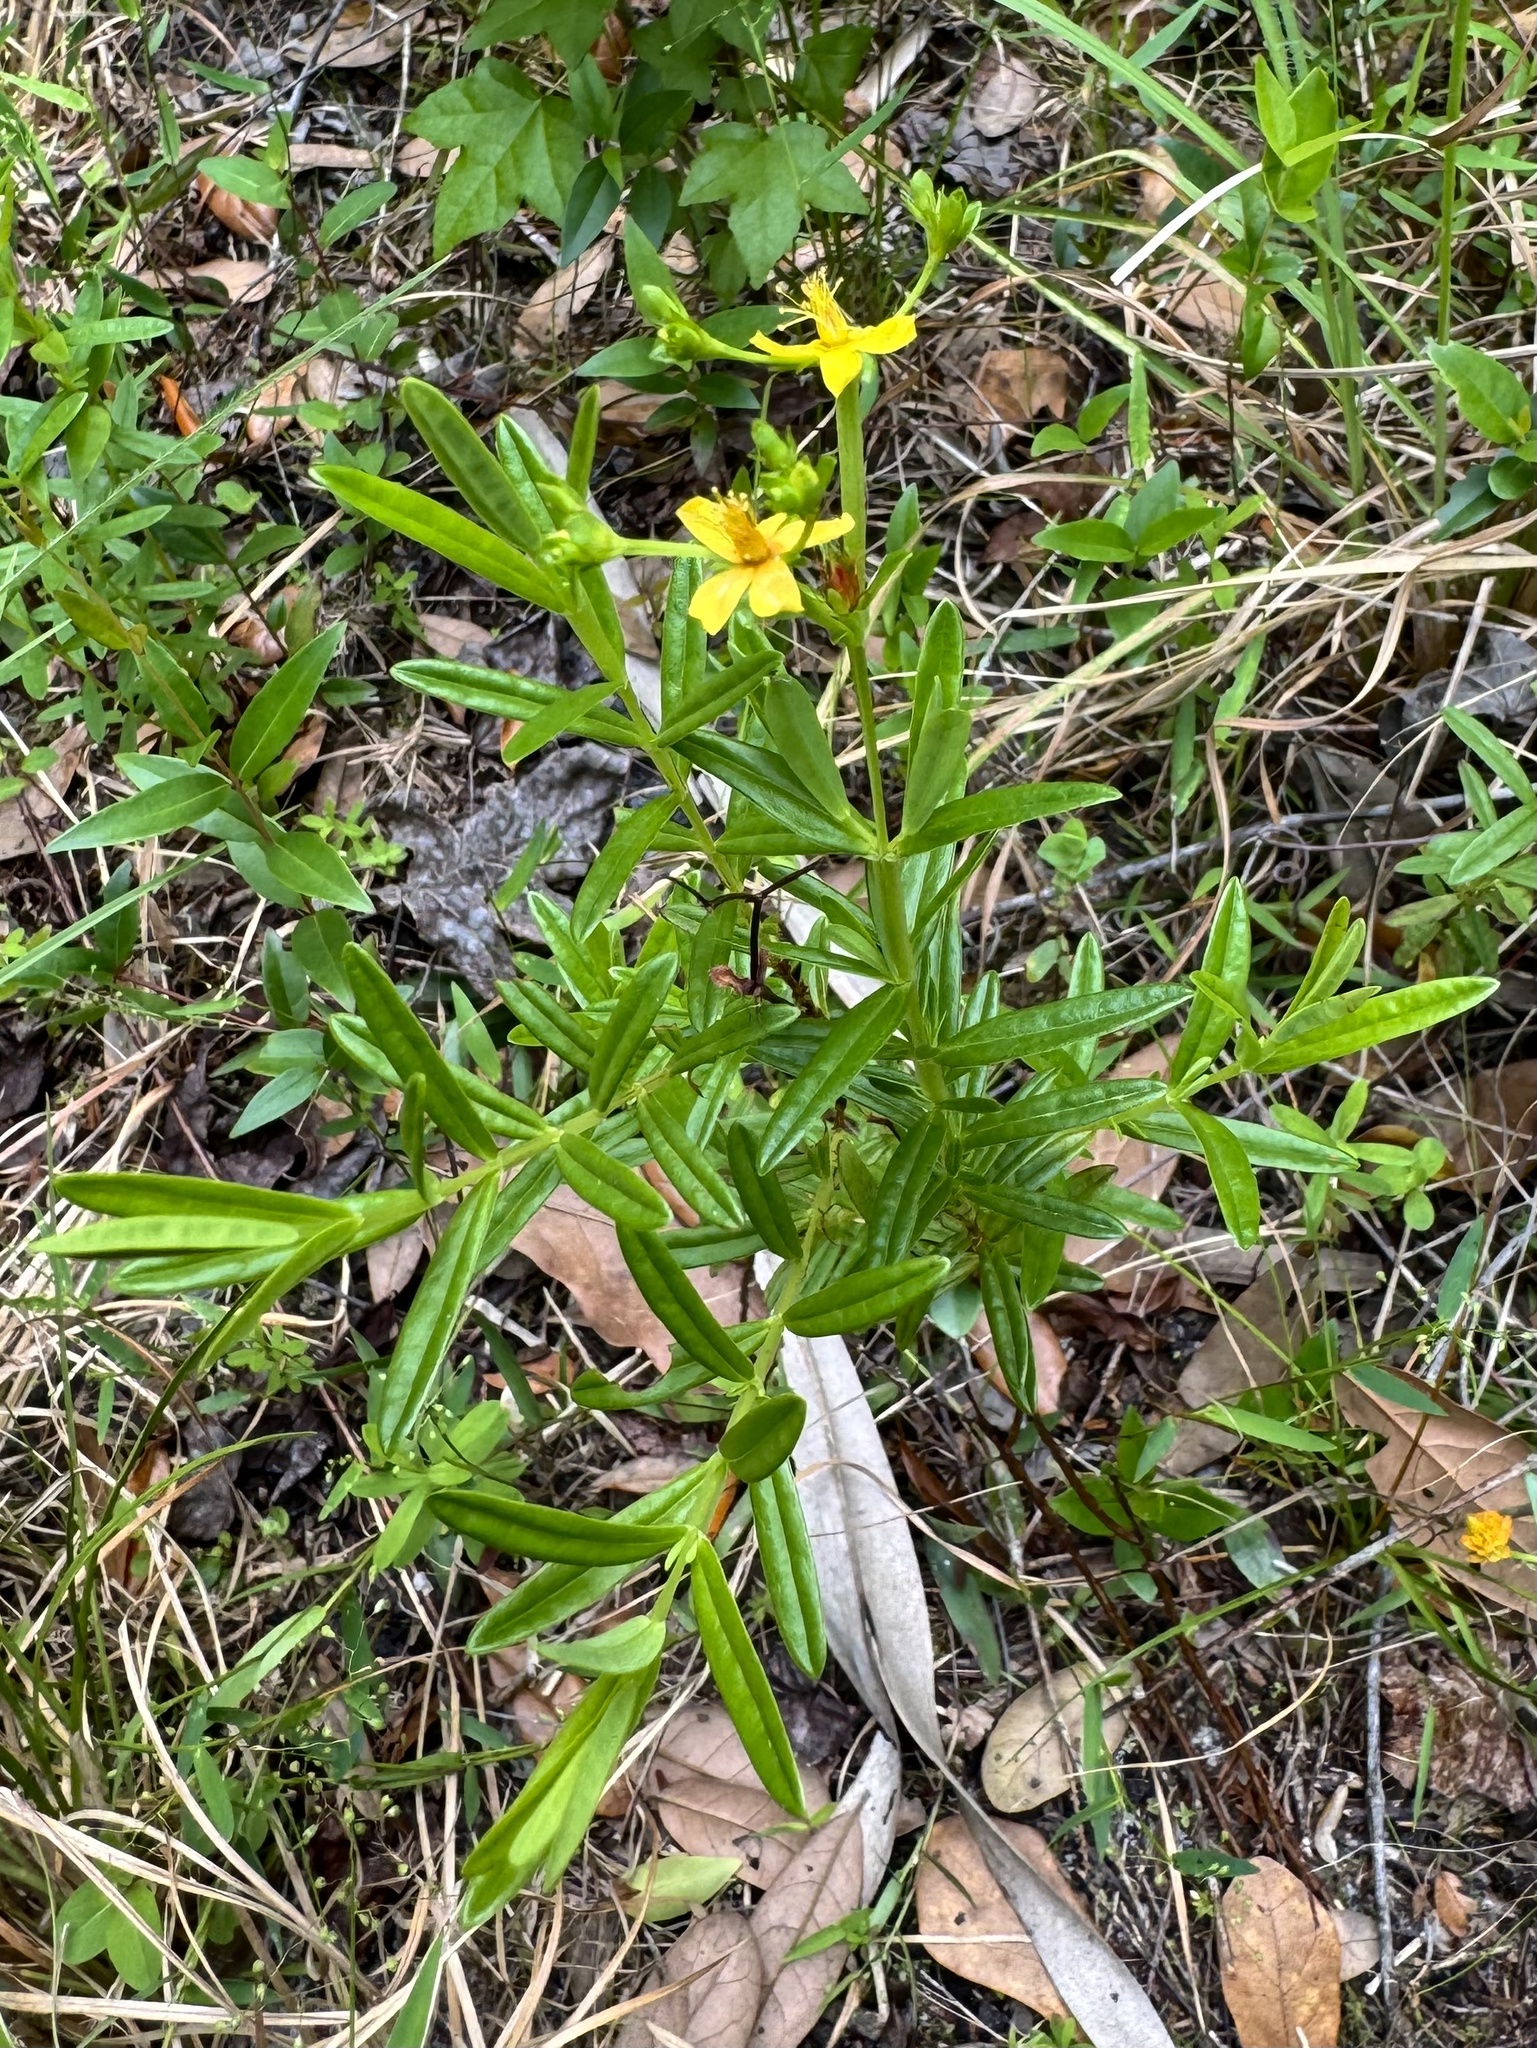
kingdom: Plantae
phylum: Tracheophyta
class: Magnoliopsida
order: Malpighiales
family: Hypericaceae
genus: Hypericum
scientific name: Hypericum cistifolium
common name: Round-pod st. john's-wort
